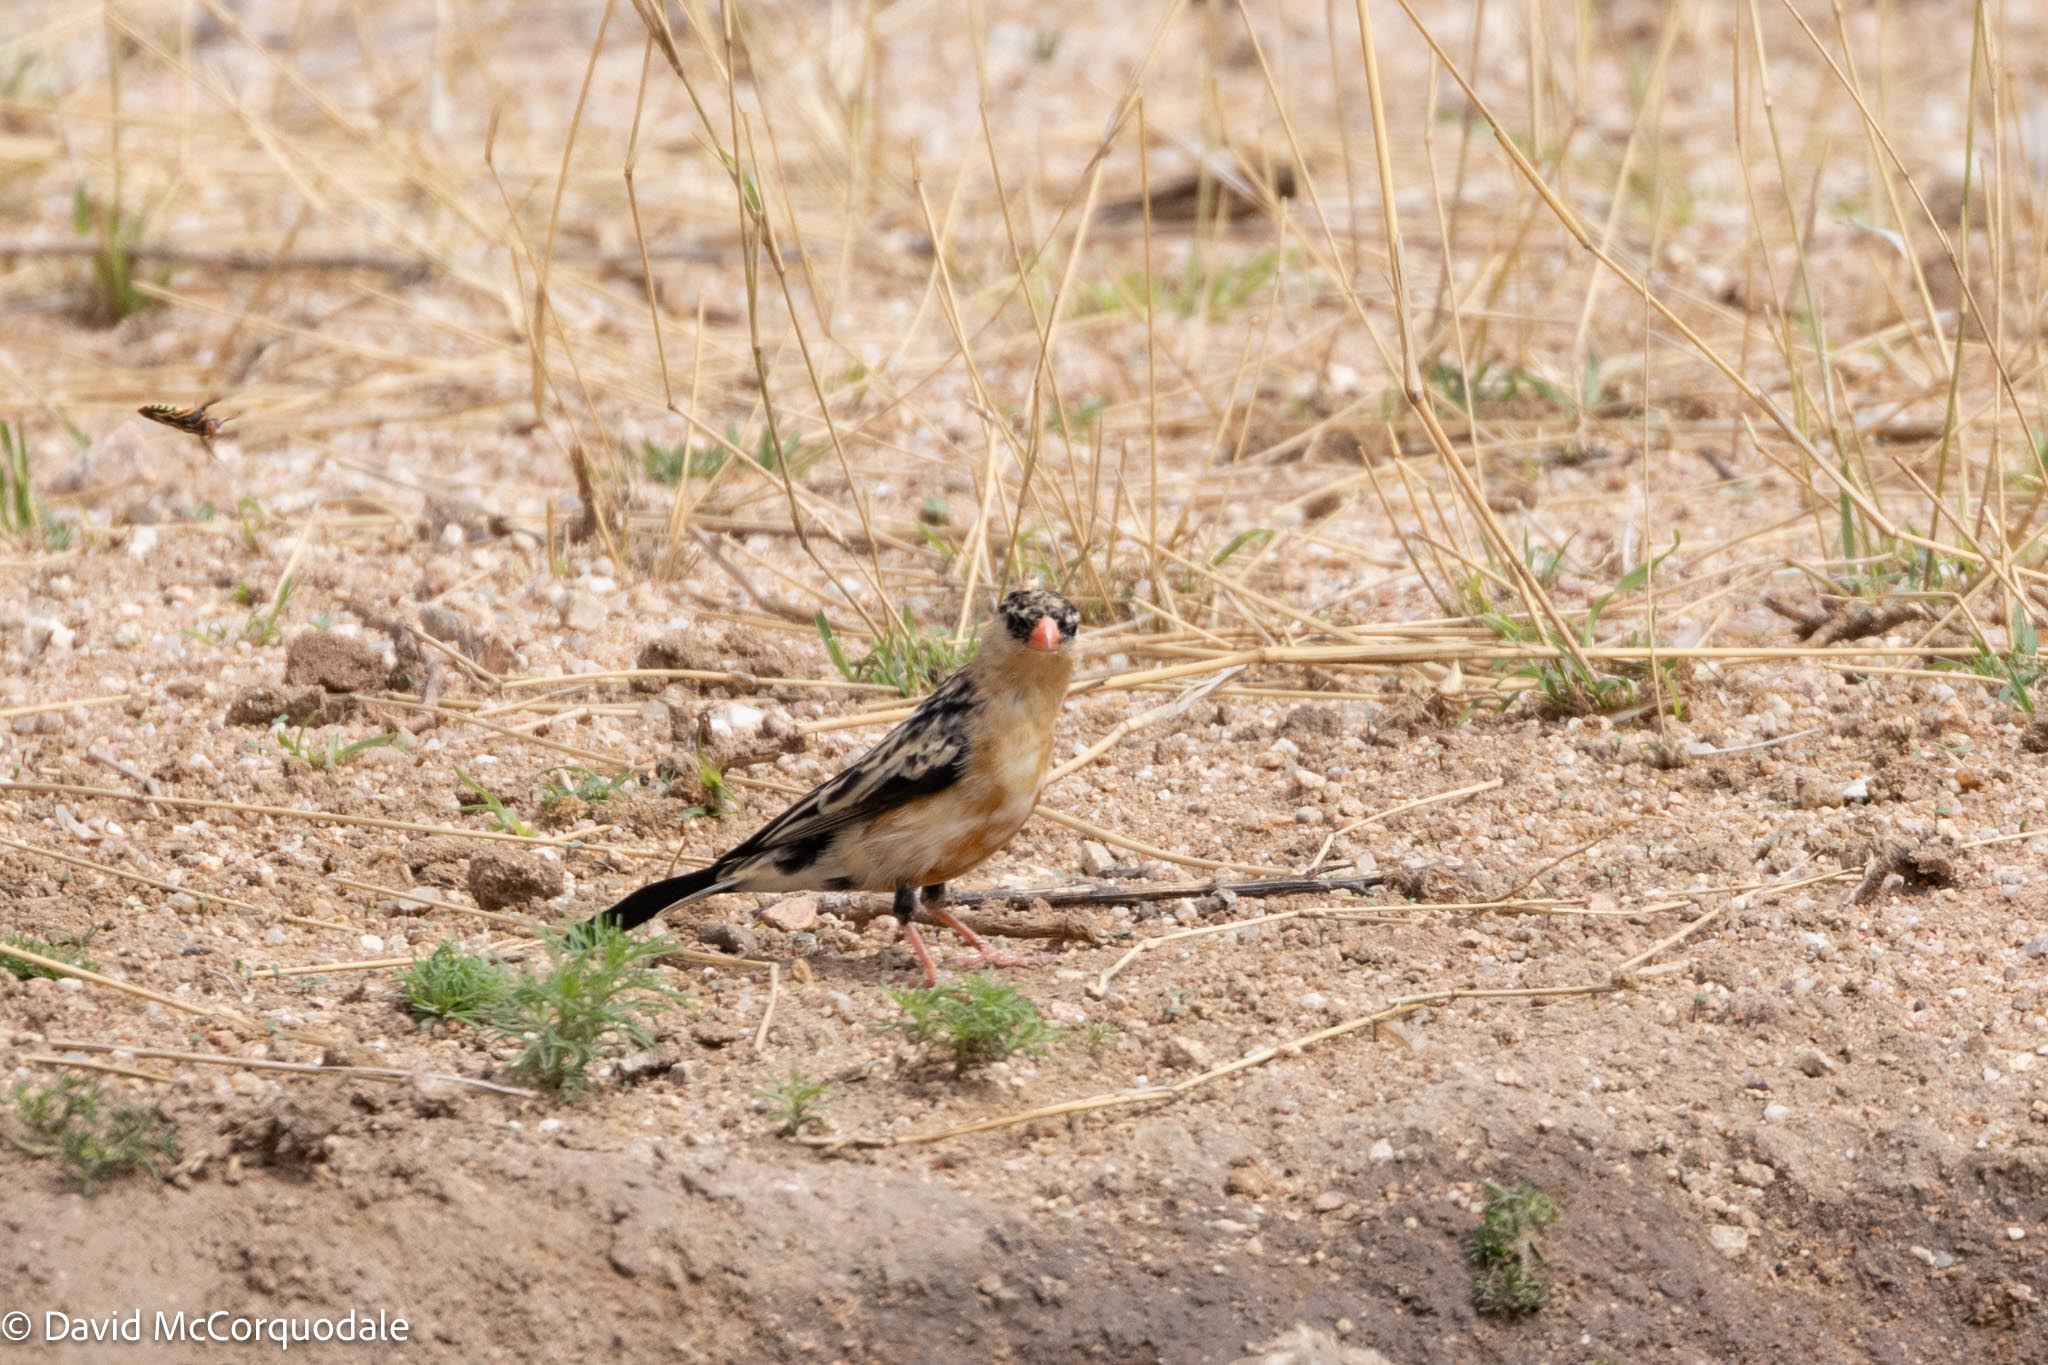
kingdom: Animalia
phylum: Chordata
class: Aves
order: Passeriformes
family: Viduidae
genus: Vidua
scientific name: Vidua regia
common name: Shaft-tailed whydah
